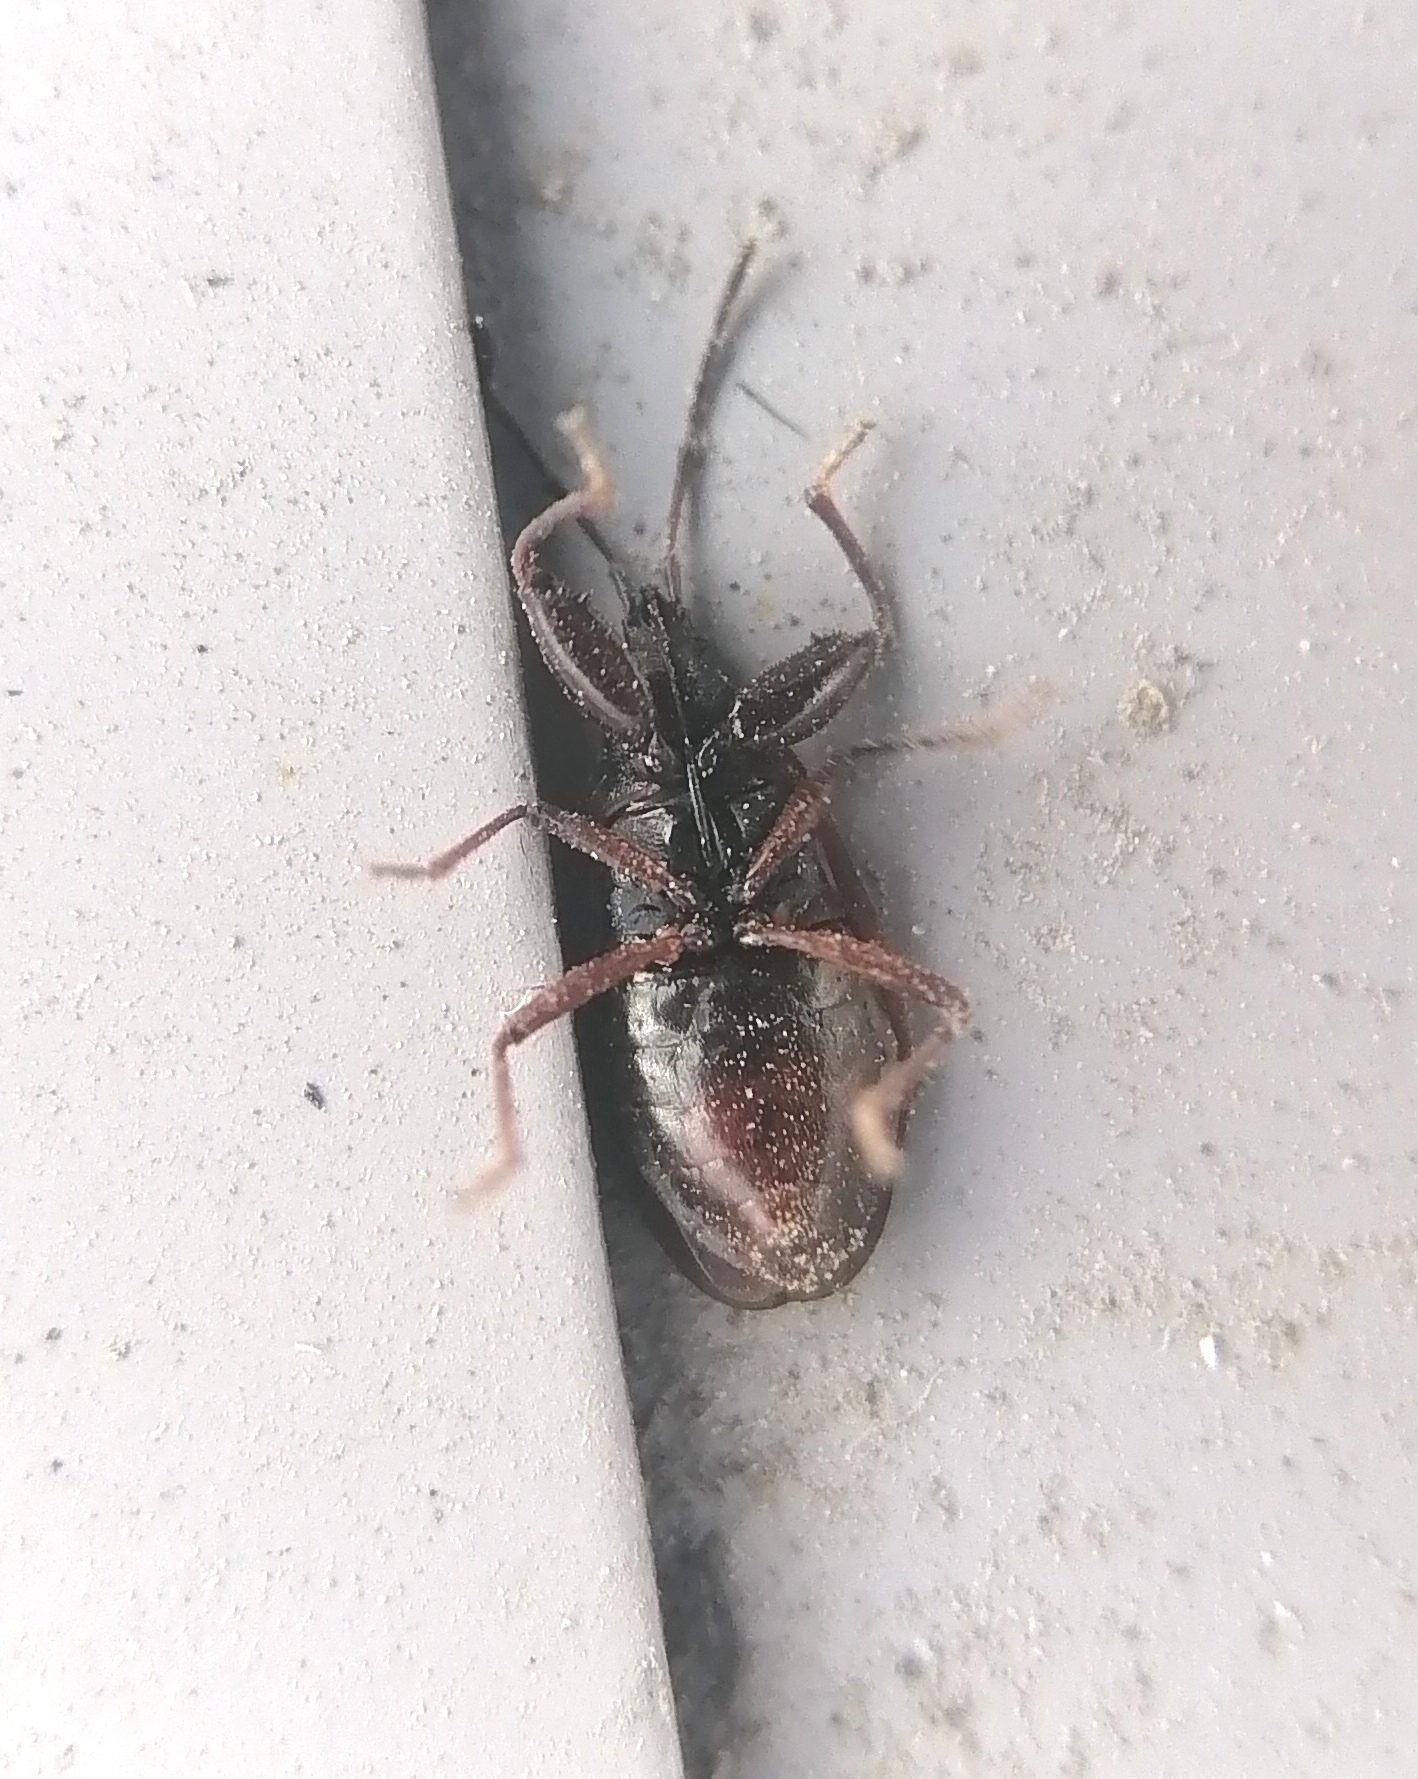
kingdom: Animalia
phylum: Arthropoda
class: Insecta
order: Hemiptera
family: Rhyparochromidae
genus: Gastrodes
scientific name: Gastrodes grossipes
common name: Pine cone bug
